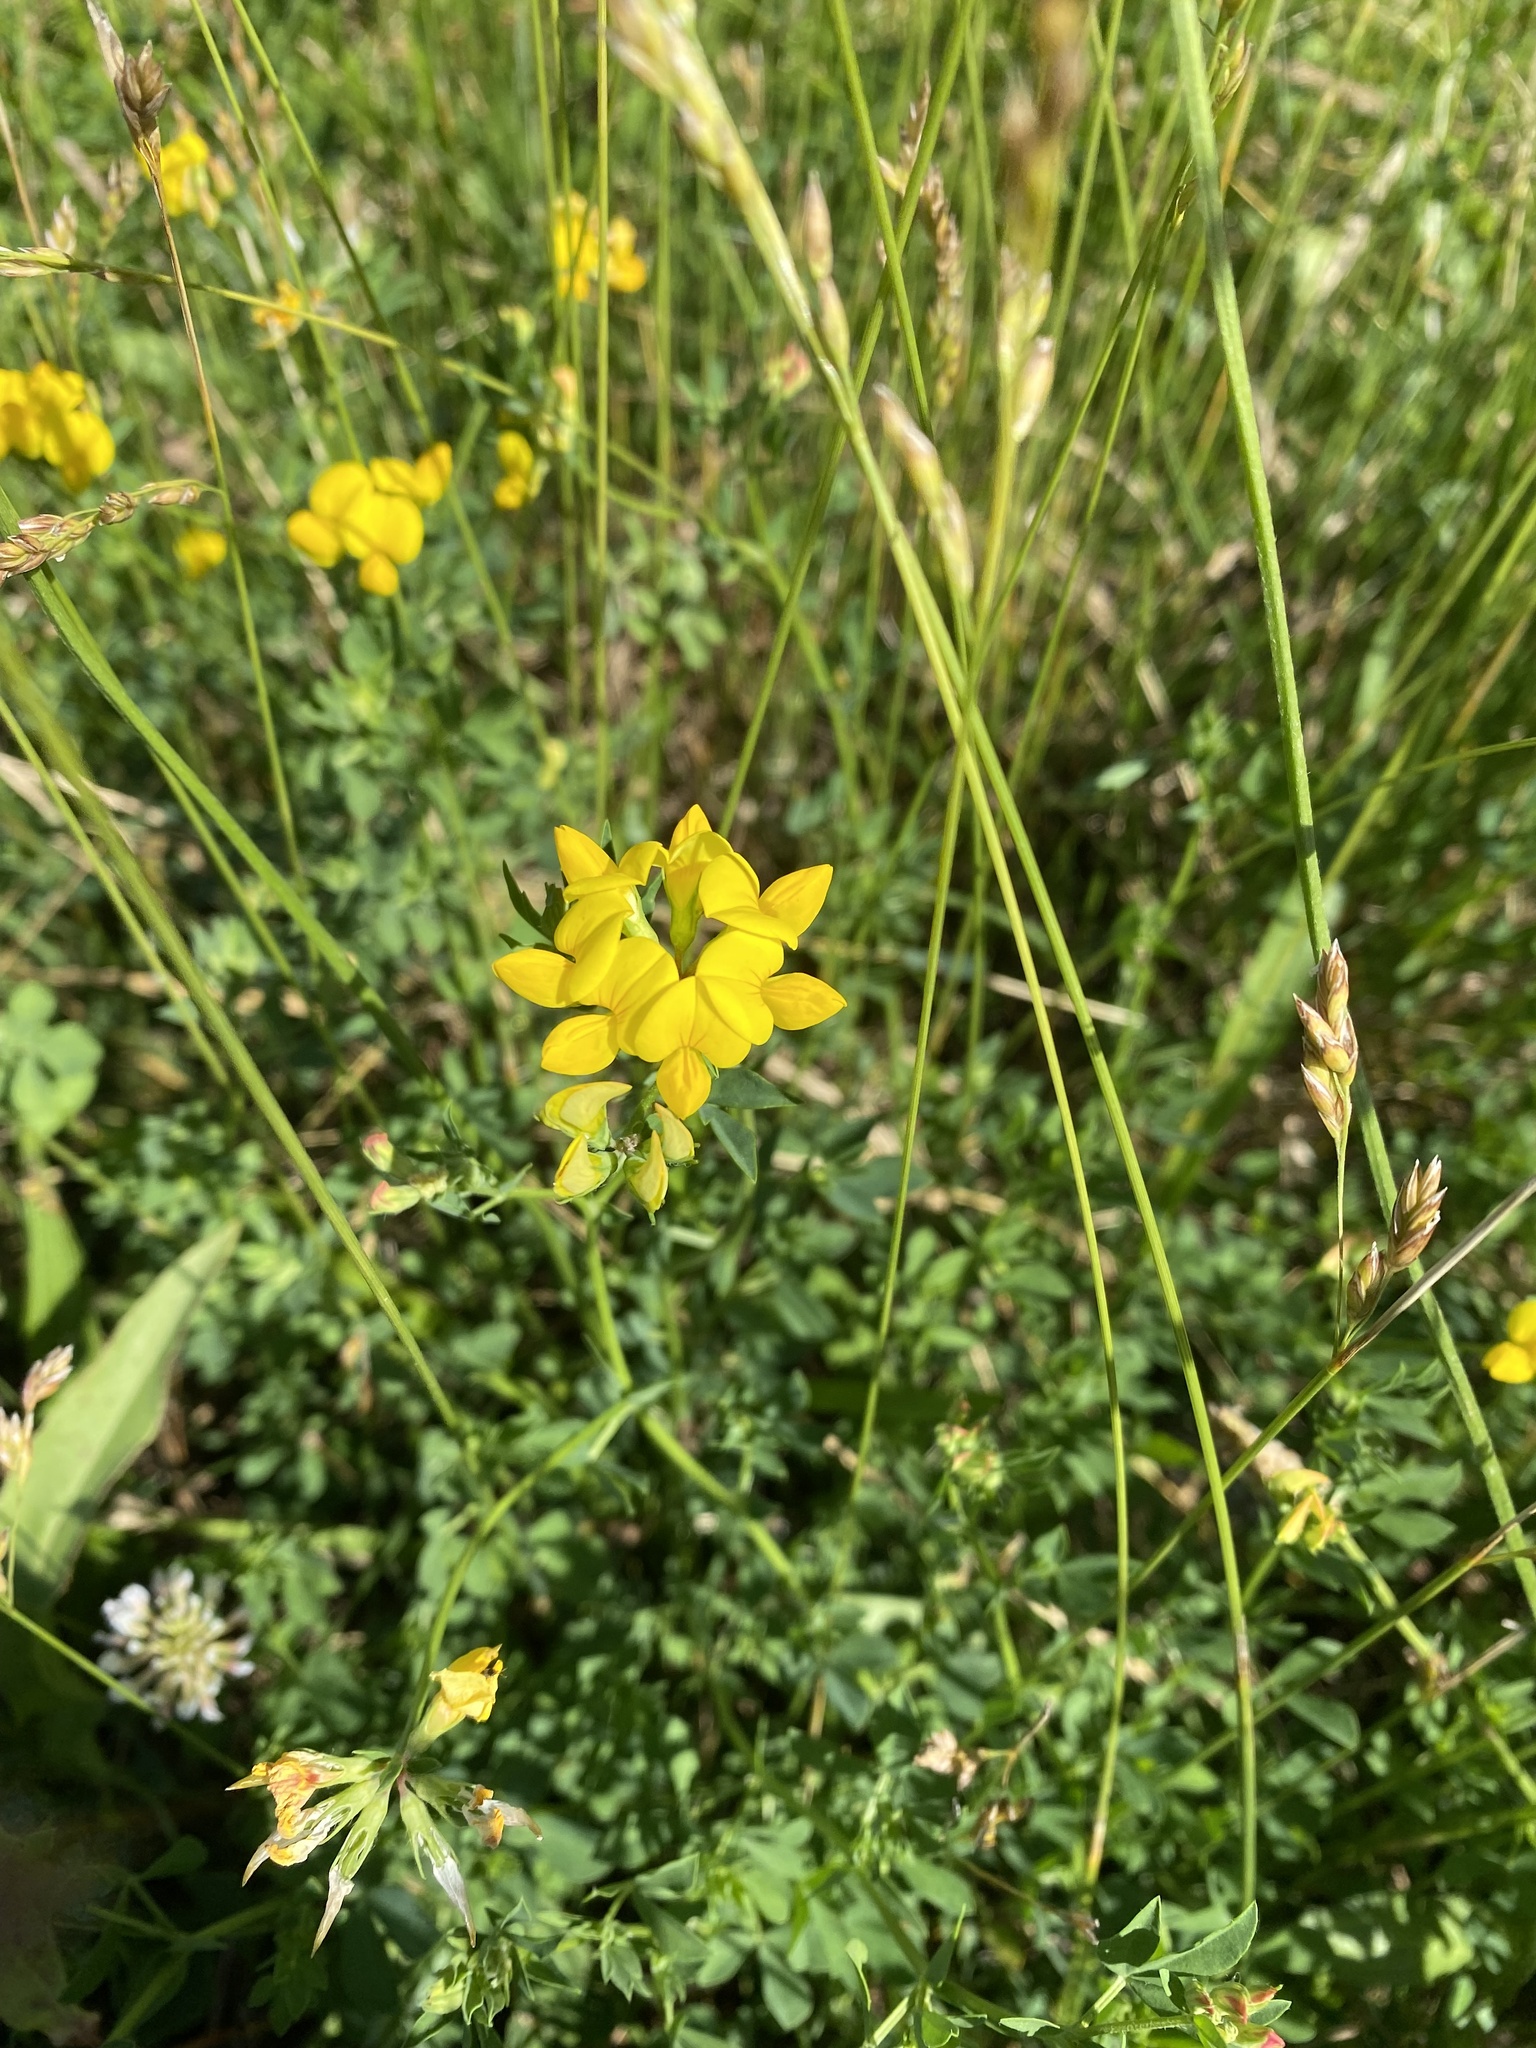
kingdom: Plantae
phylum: Tracheophyta
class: Magnoliopsida
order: Fabales
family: Fabaceae
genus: Lotus
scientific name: Lotus corniculatus
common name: Common bird's-foot-trefoil
